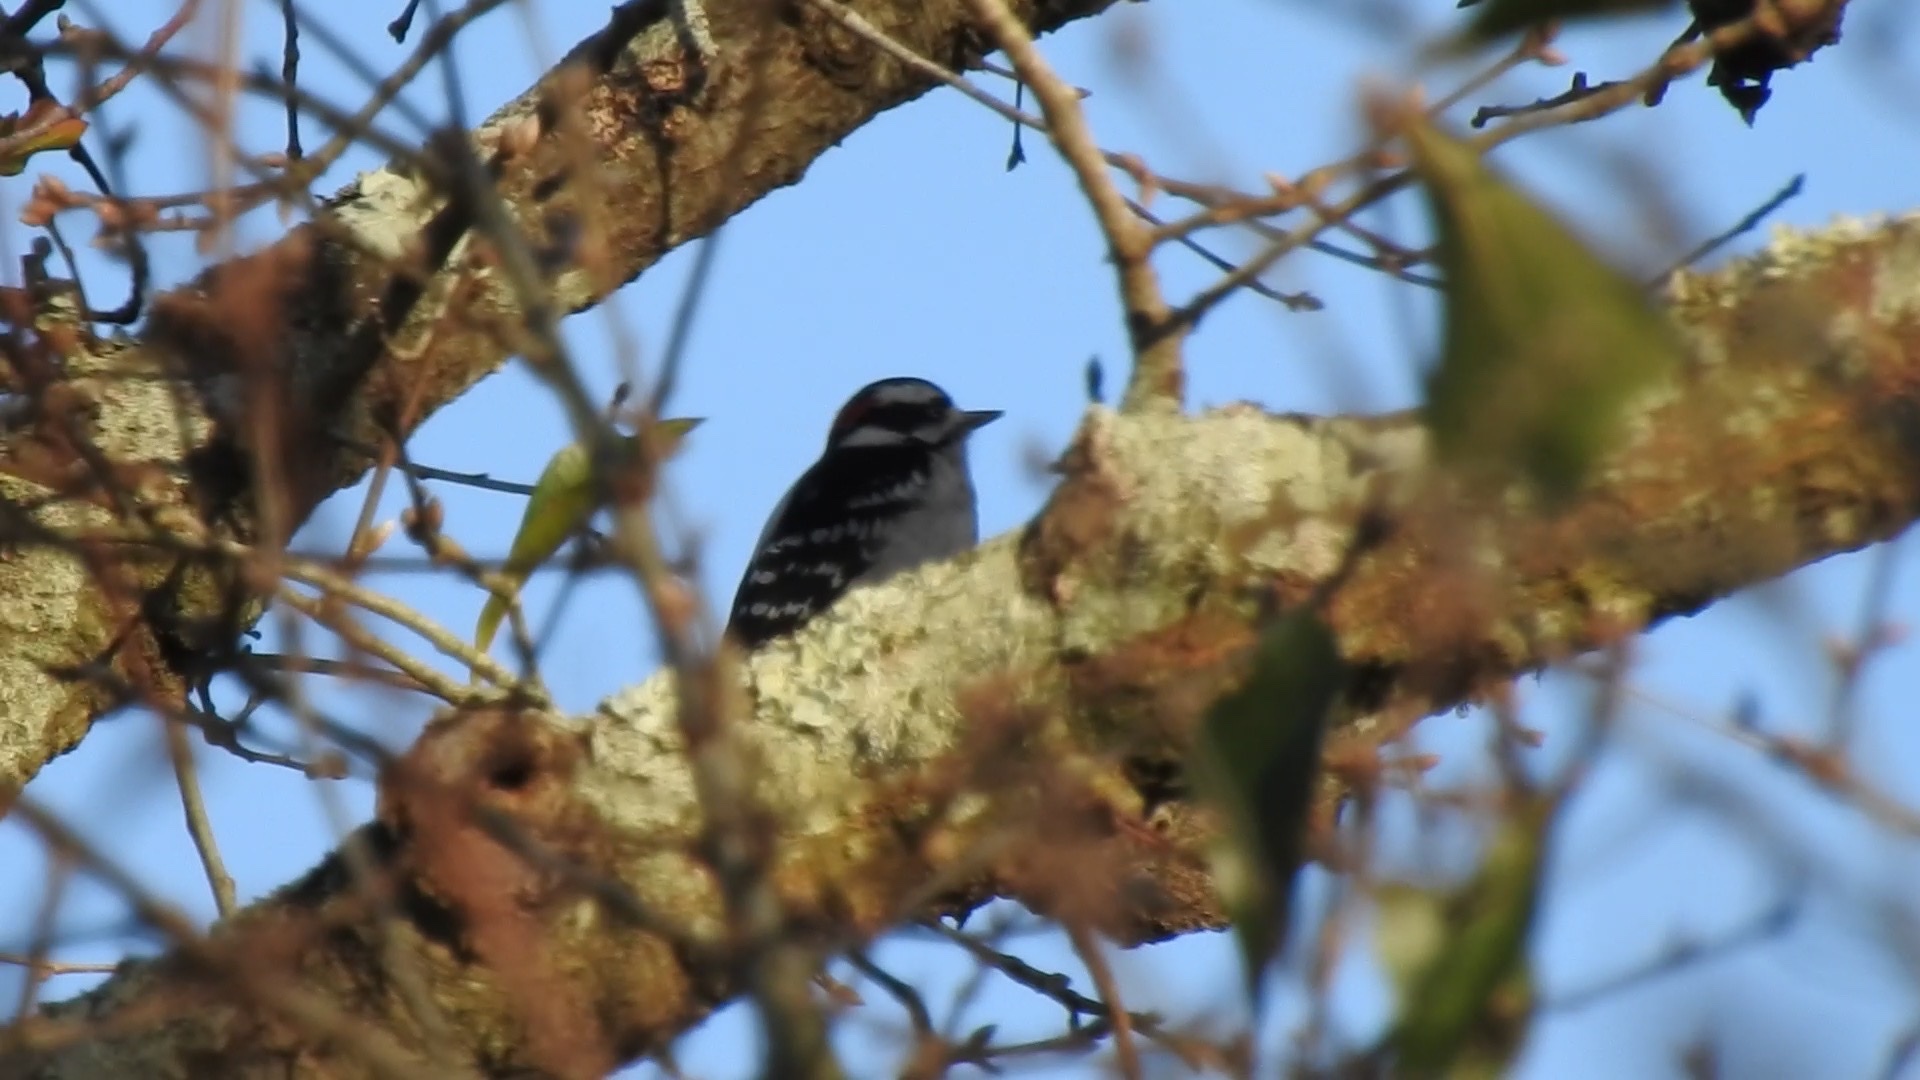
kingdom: Animalia
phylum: Chordata
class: Aves
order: Piciformes
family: Picidae
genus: Dryobates
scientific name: Dryobates pubescens
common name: Downy woodpecker
